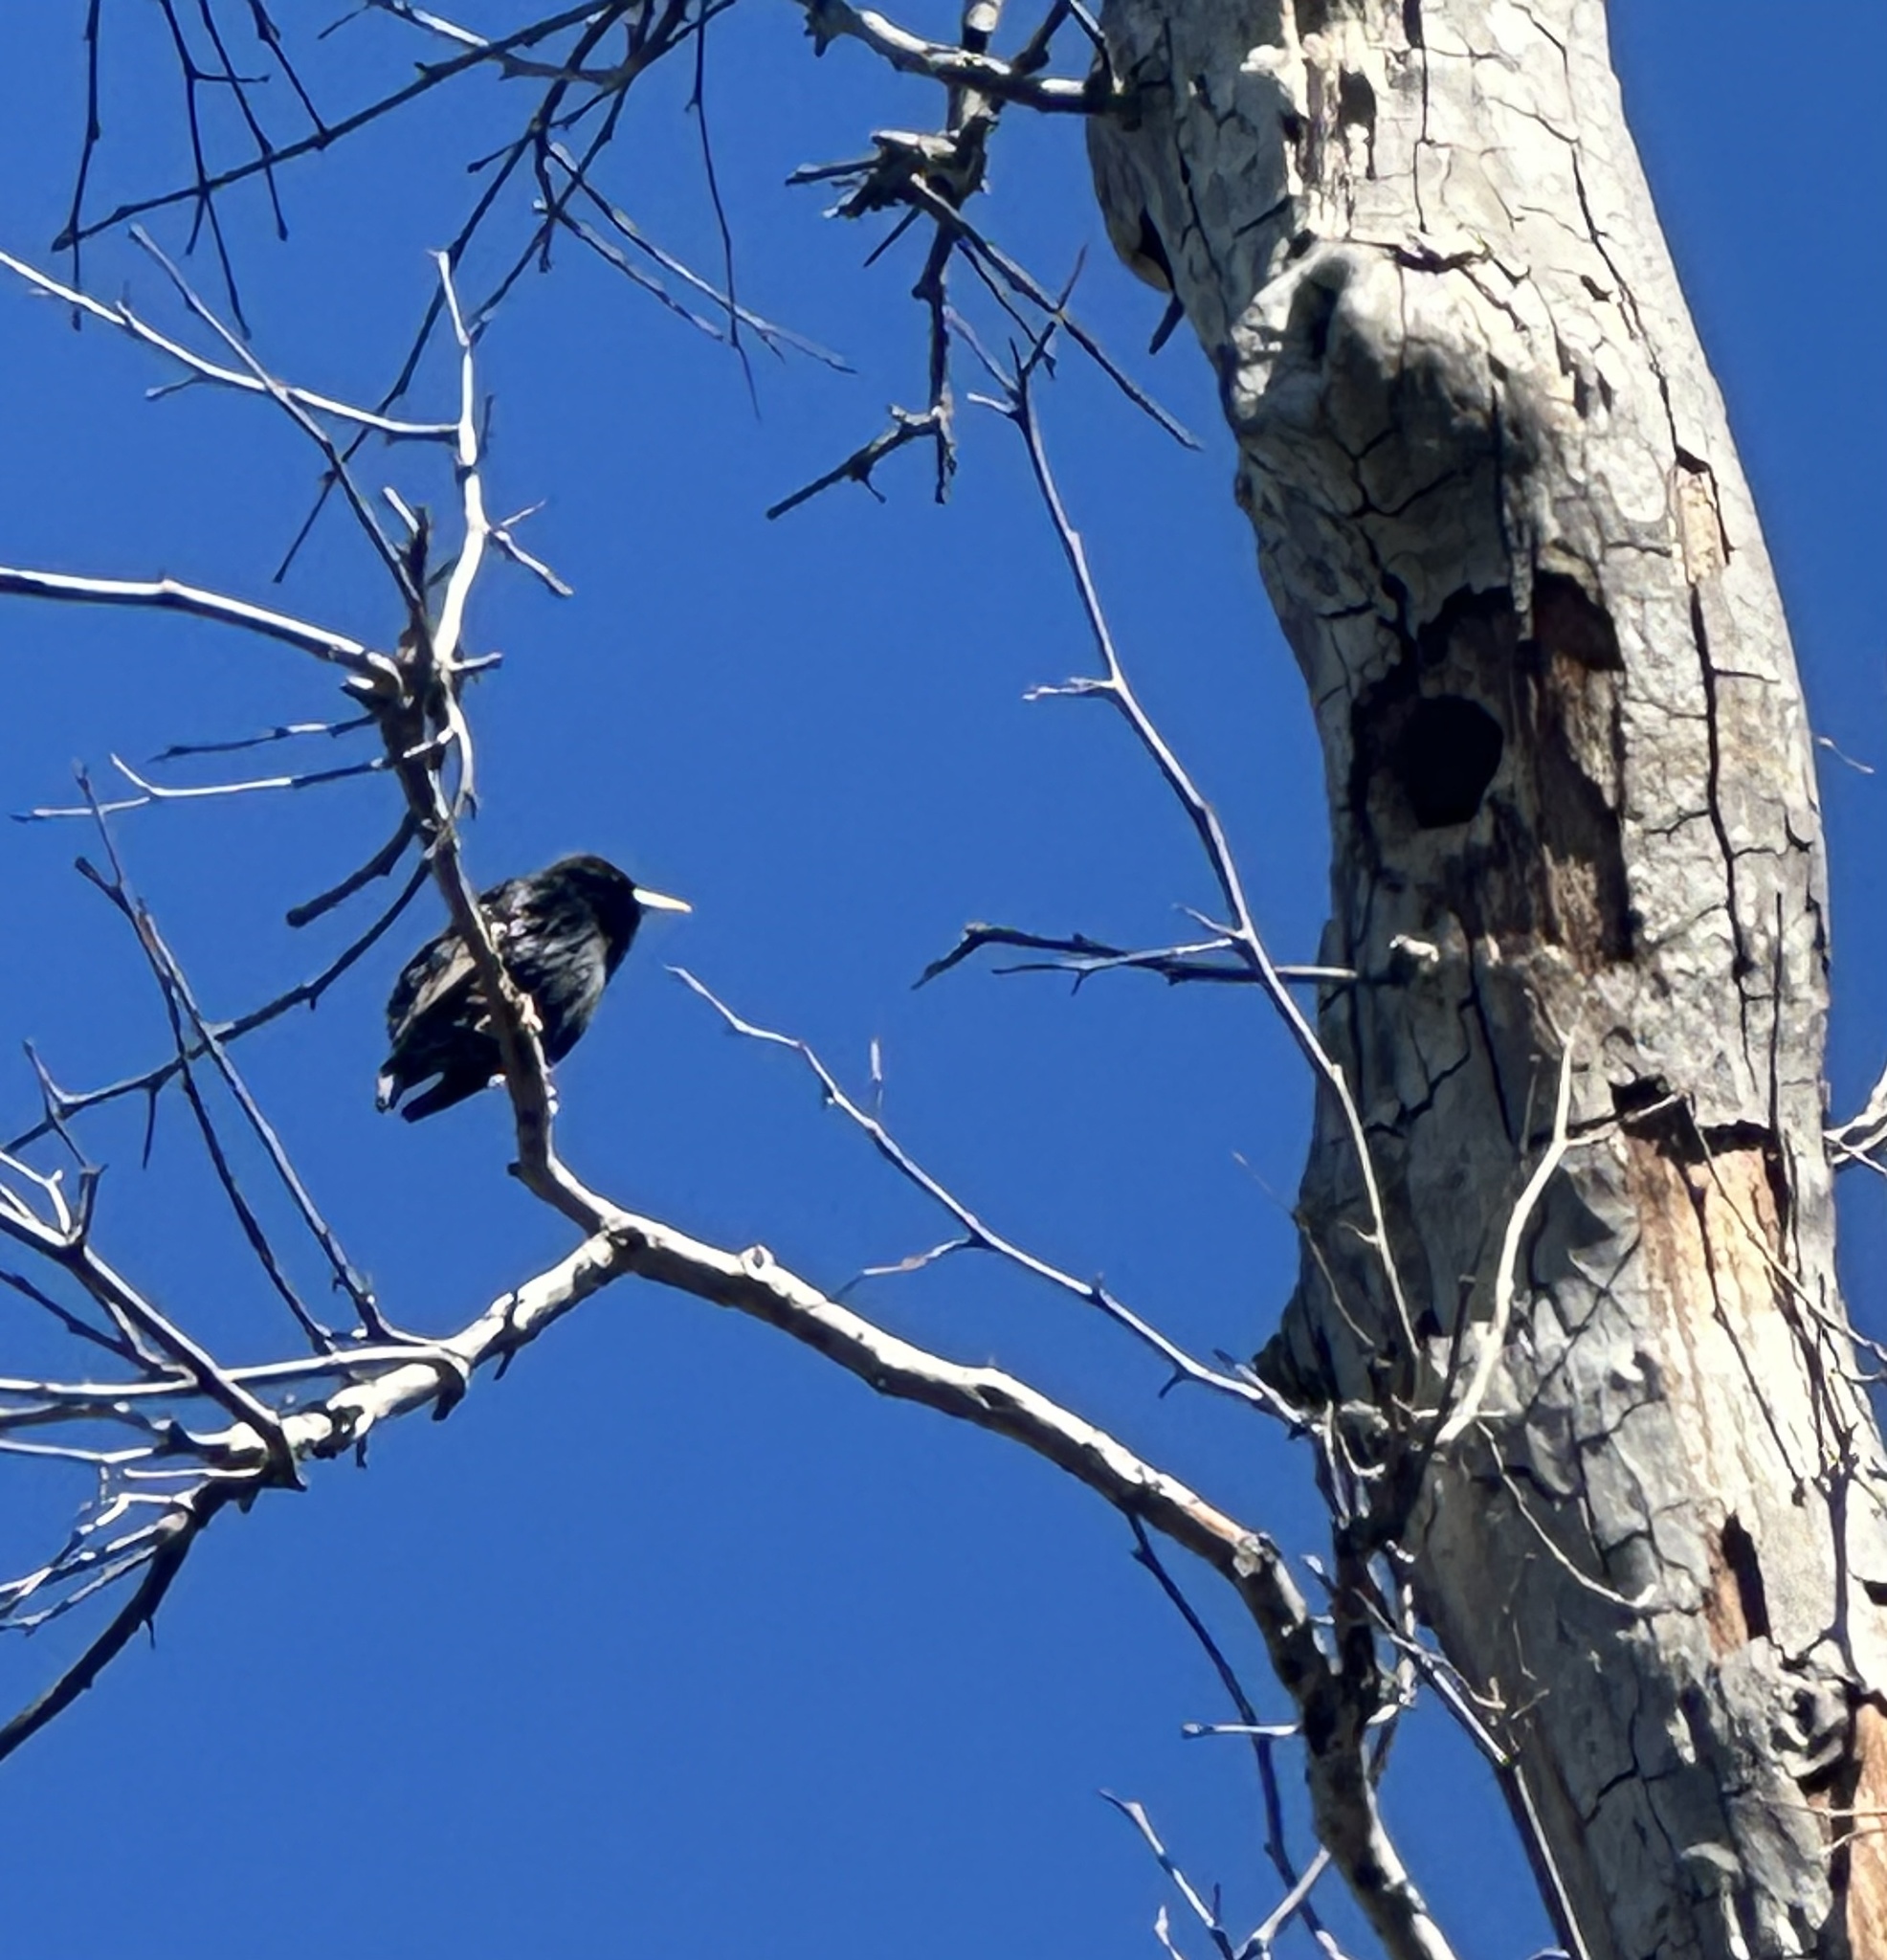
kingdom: Animalia
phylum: Chordata
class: Aves
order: Passeriformes
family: Sturnidae
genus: Sturnus
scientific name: Sturnus vulgaris
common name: Common starling
